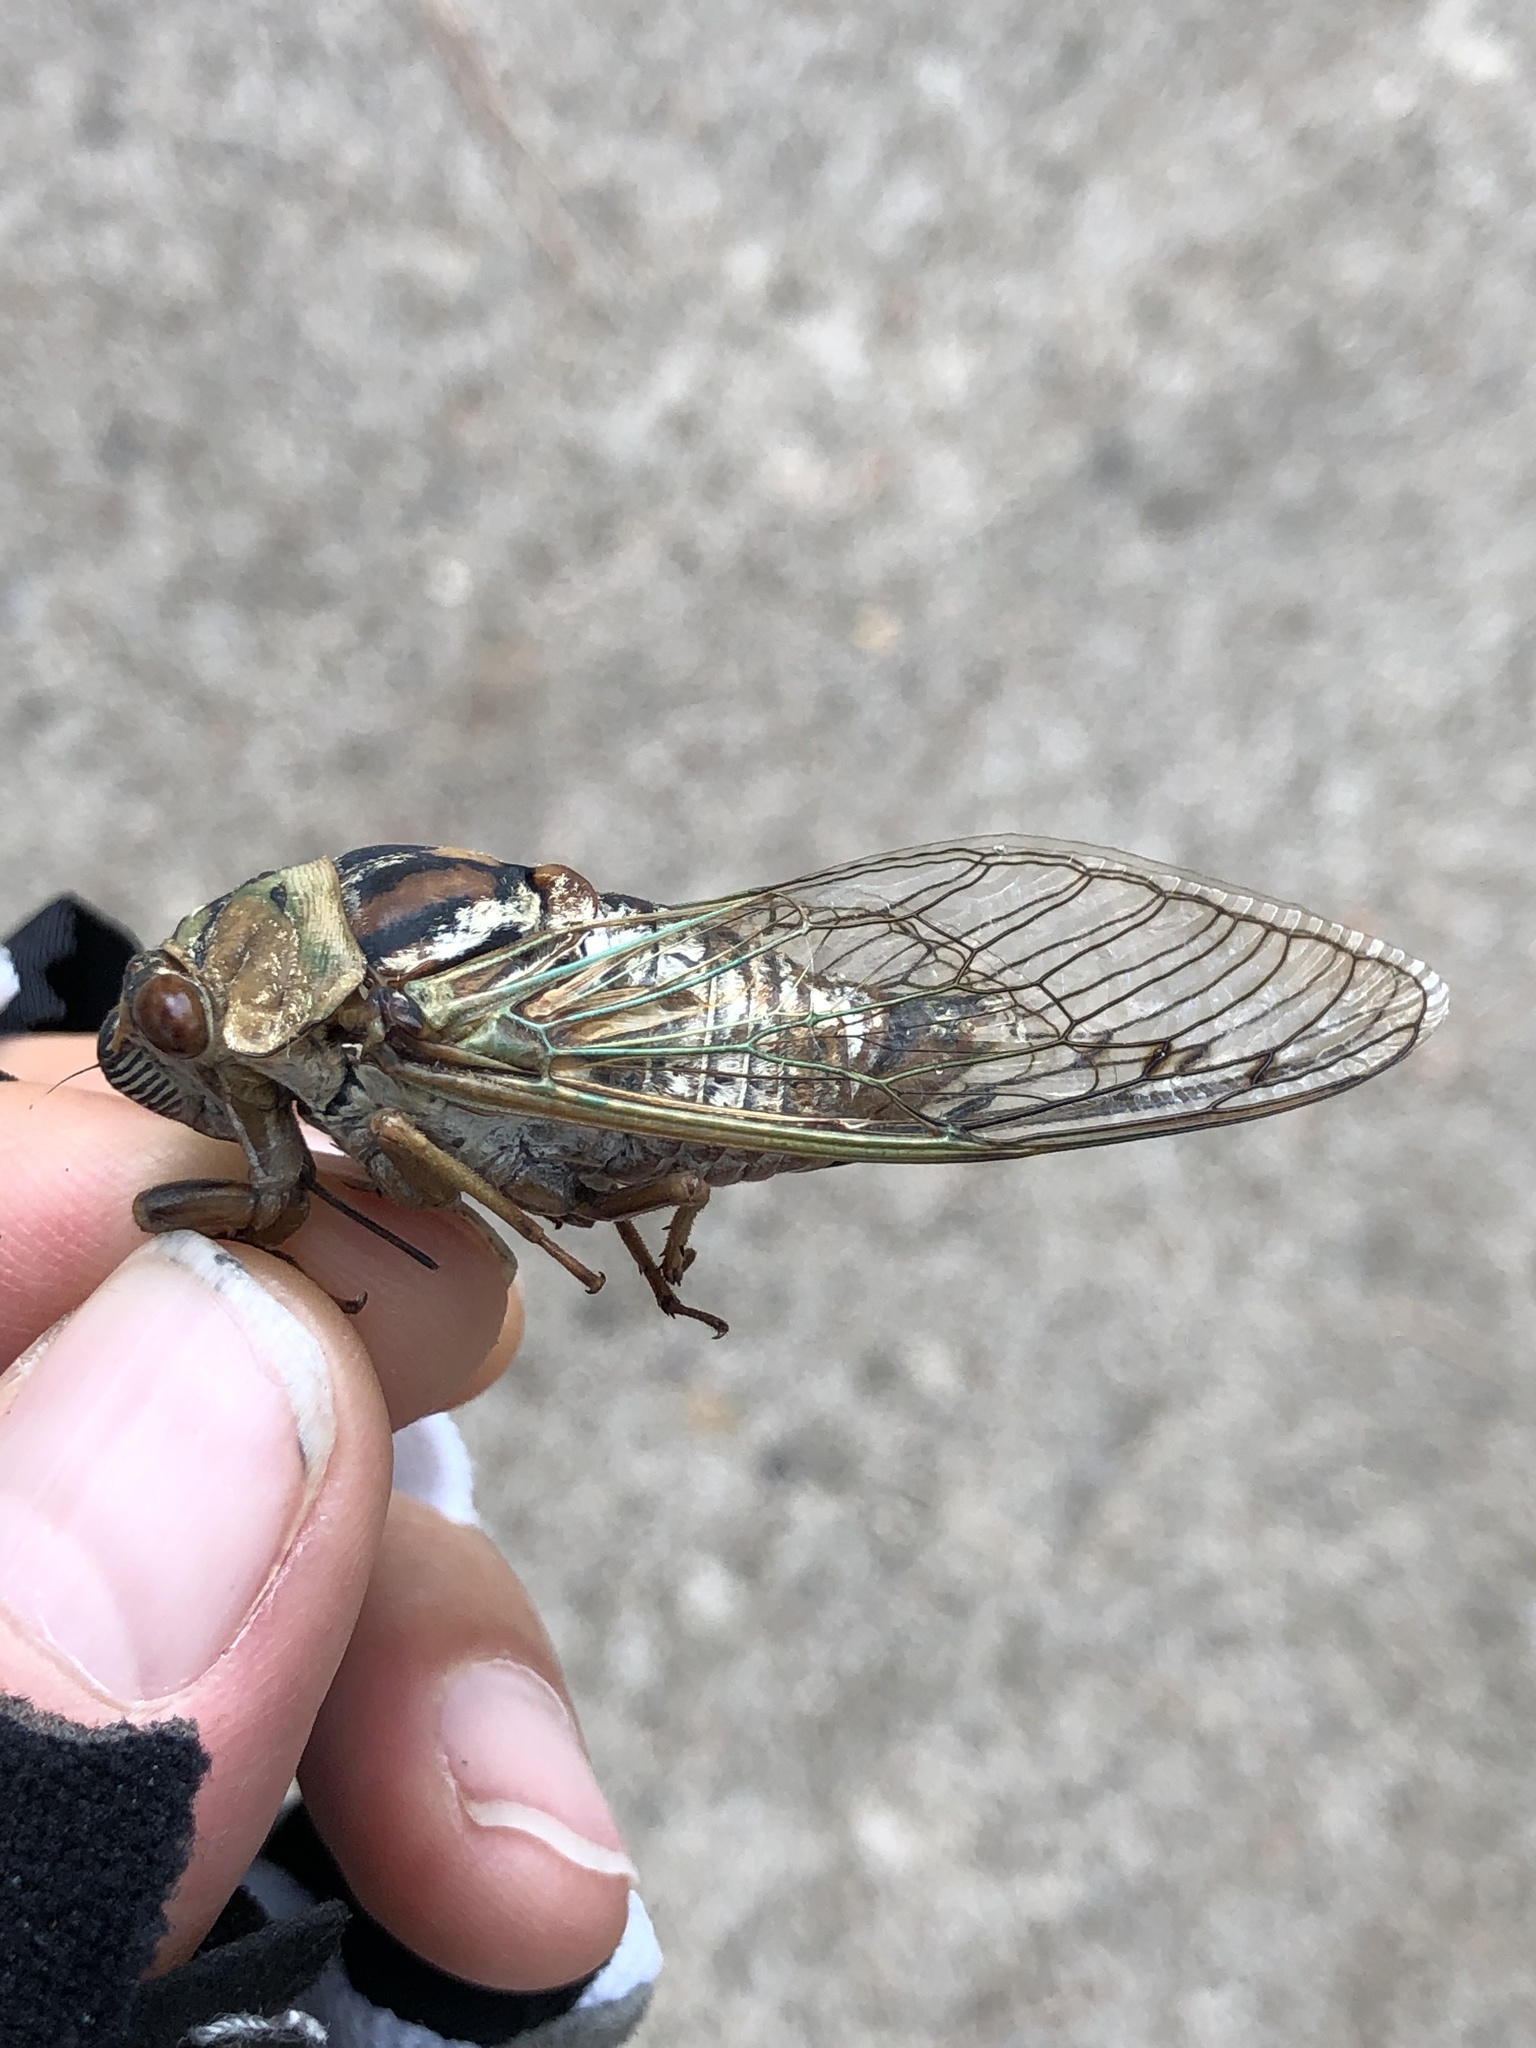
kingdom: Animalia
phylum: Arthropoda
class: Insecta
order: Hemiptera
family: Cicadidae
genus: Megatibicen
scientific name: Megatibicen resh
